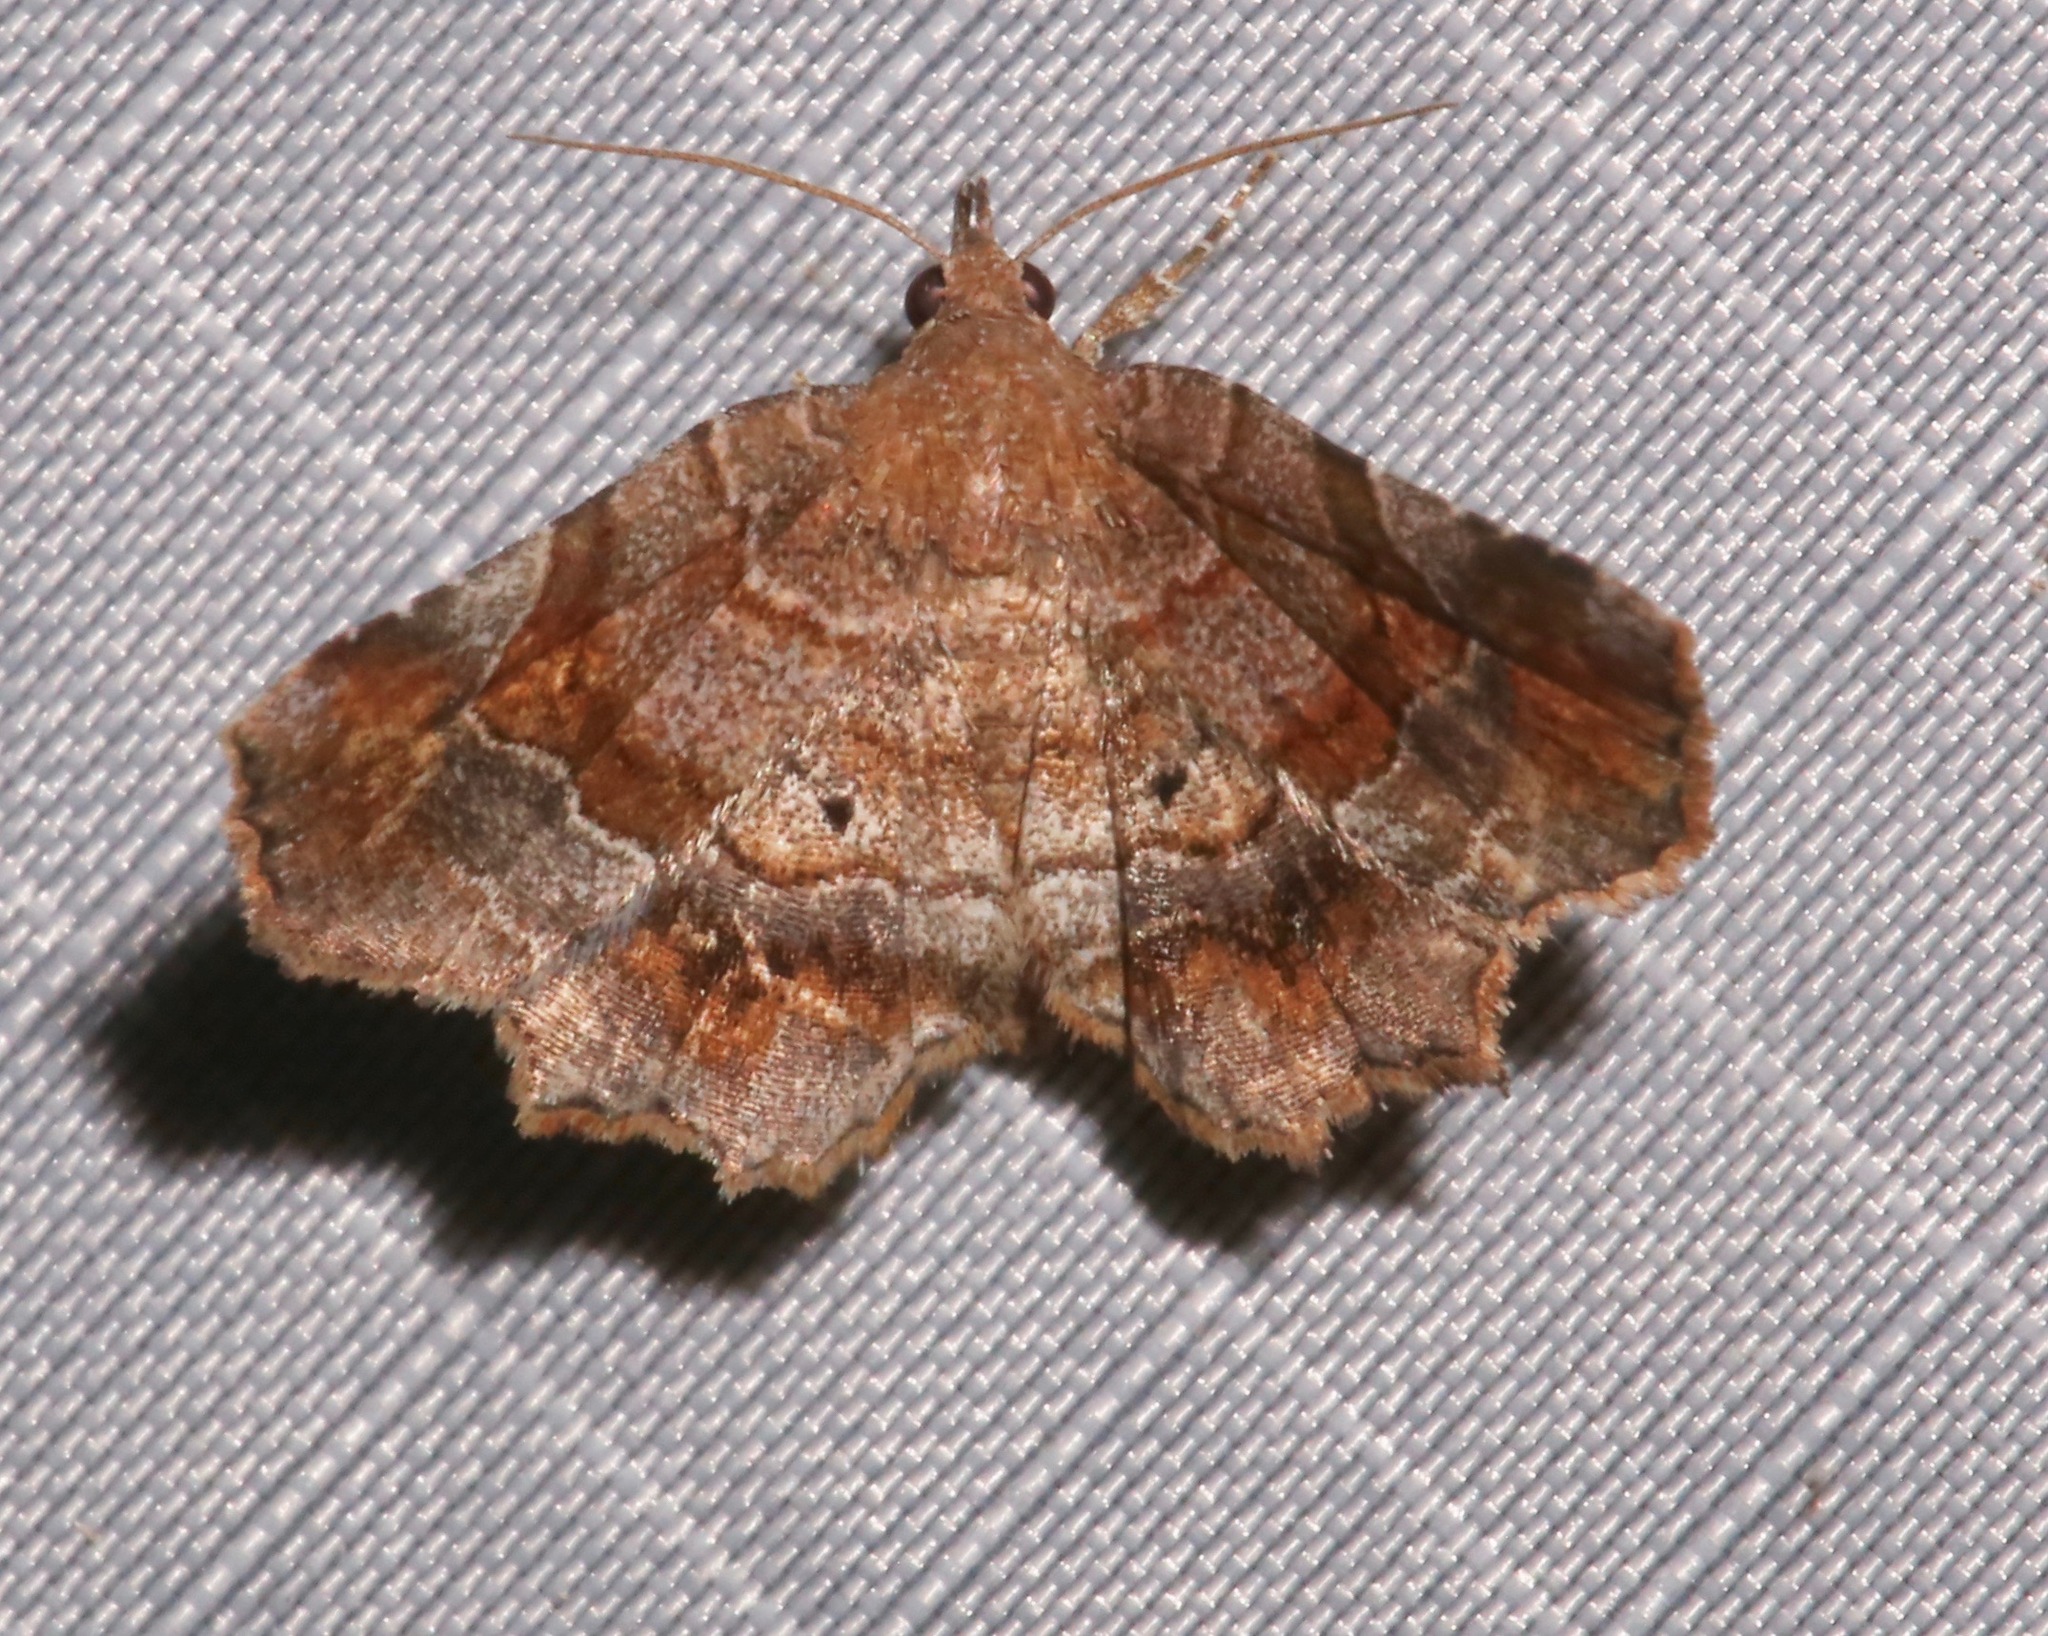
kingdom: Animalia
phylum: Arthropoda
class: Insecta
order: Lepidoptera
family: Erebidae
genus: Pangrapta
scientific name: Pangrapta decoralis
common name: Decorated owlet
